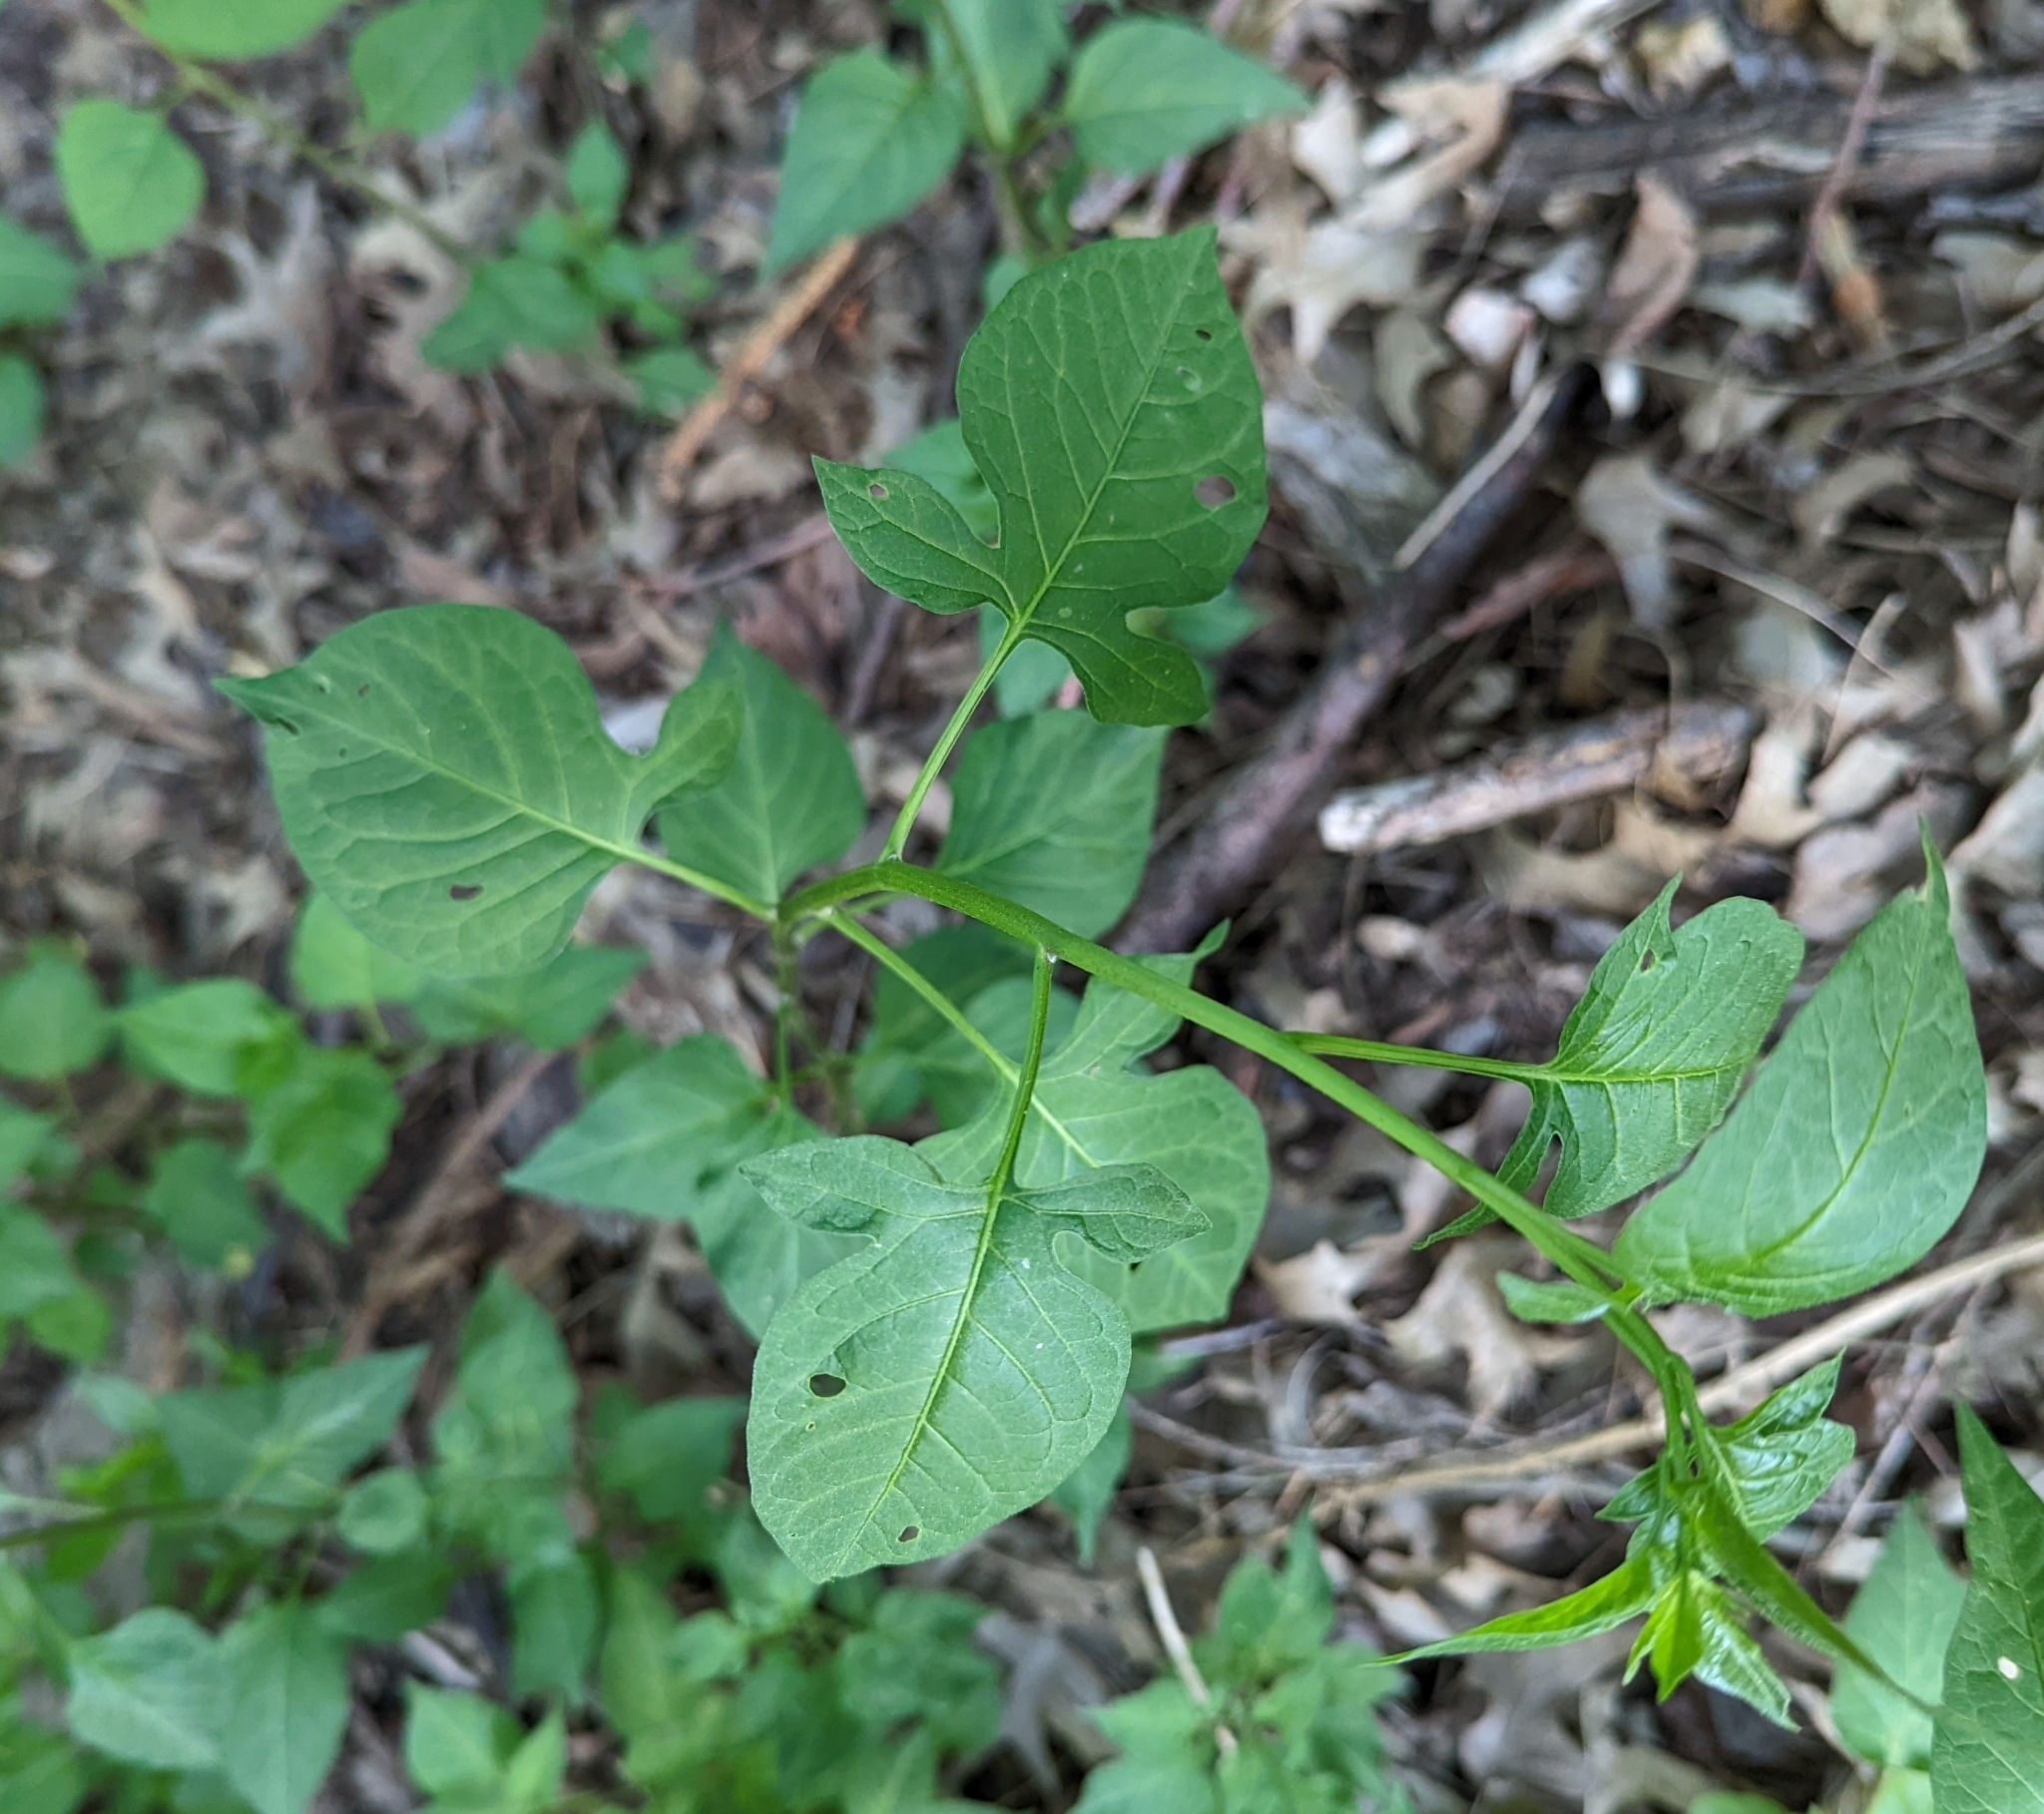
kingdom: Plantae
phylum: Tracheophyta
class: Magnoliopsida
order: Solanales
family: Solanaceae
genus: Solanum
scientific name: Solanum dulcamara
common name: Climbing nightshade
